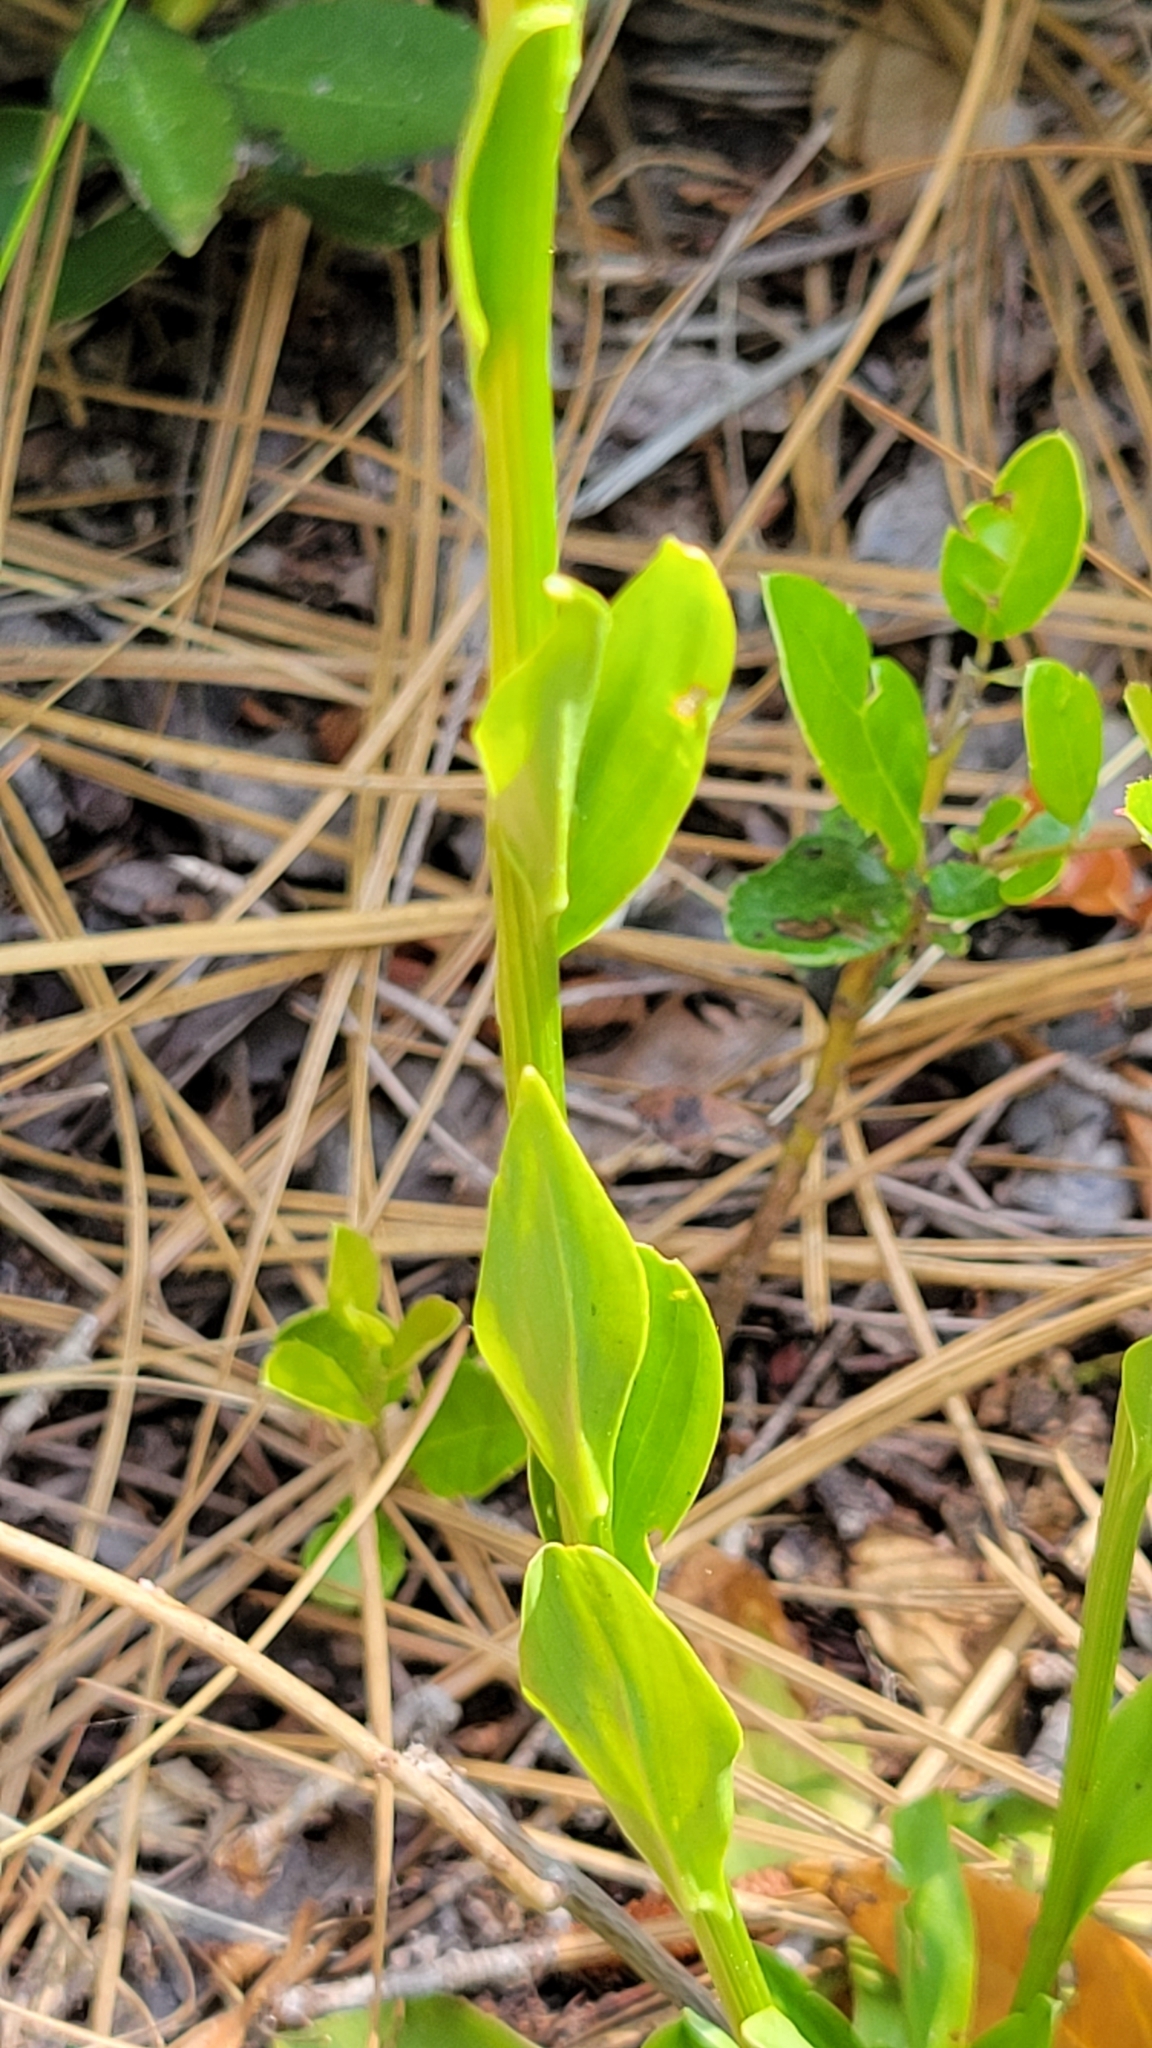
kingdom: Plantae
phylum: Tracheophyta
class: Liliopsida
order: Liliales
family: Melanthiaceae
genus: Chamaelirium
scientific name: Chamaelirium luteum
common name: Fairy-wand
